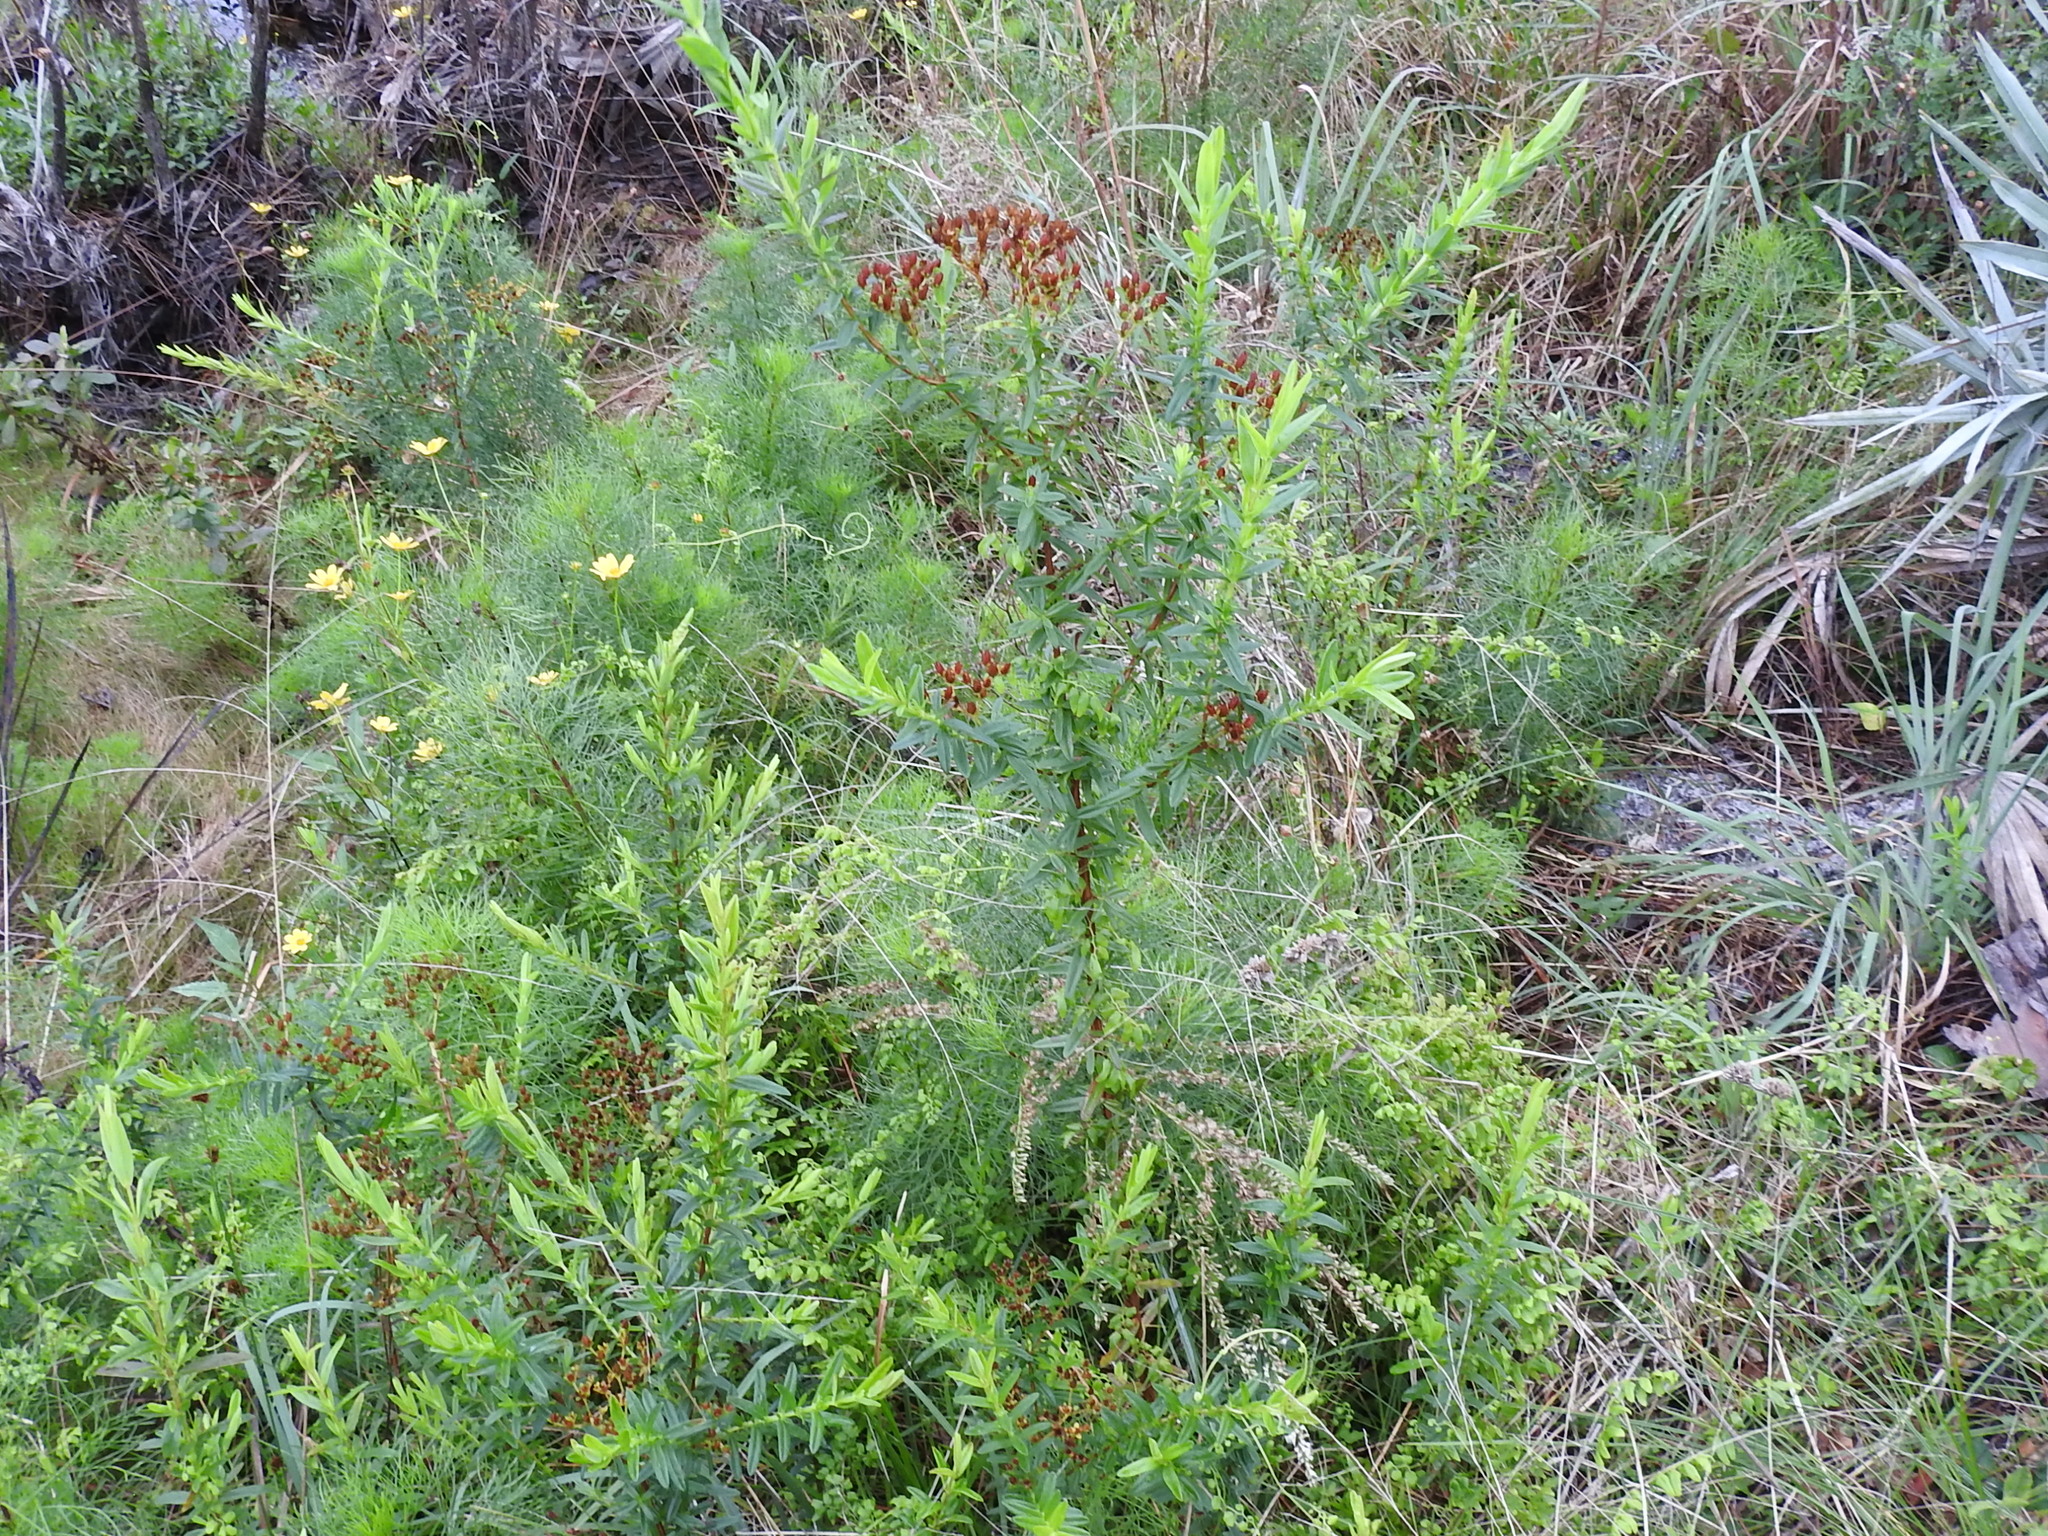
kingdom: Plantae
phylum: Tracheophyta
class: Magnoliopsida
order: Malpighiales
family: Hypericaceae
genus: Hypericum
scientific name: Hypericum cistifolium
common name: Round-pod st. john's-wort
